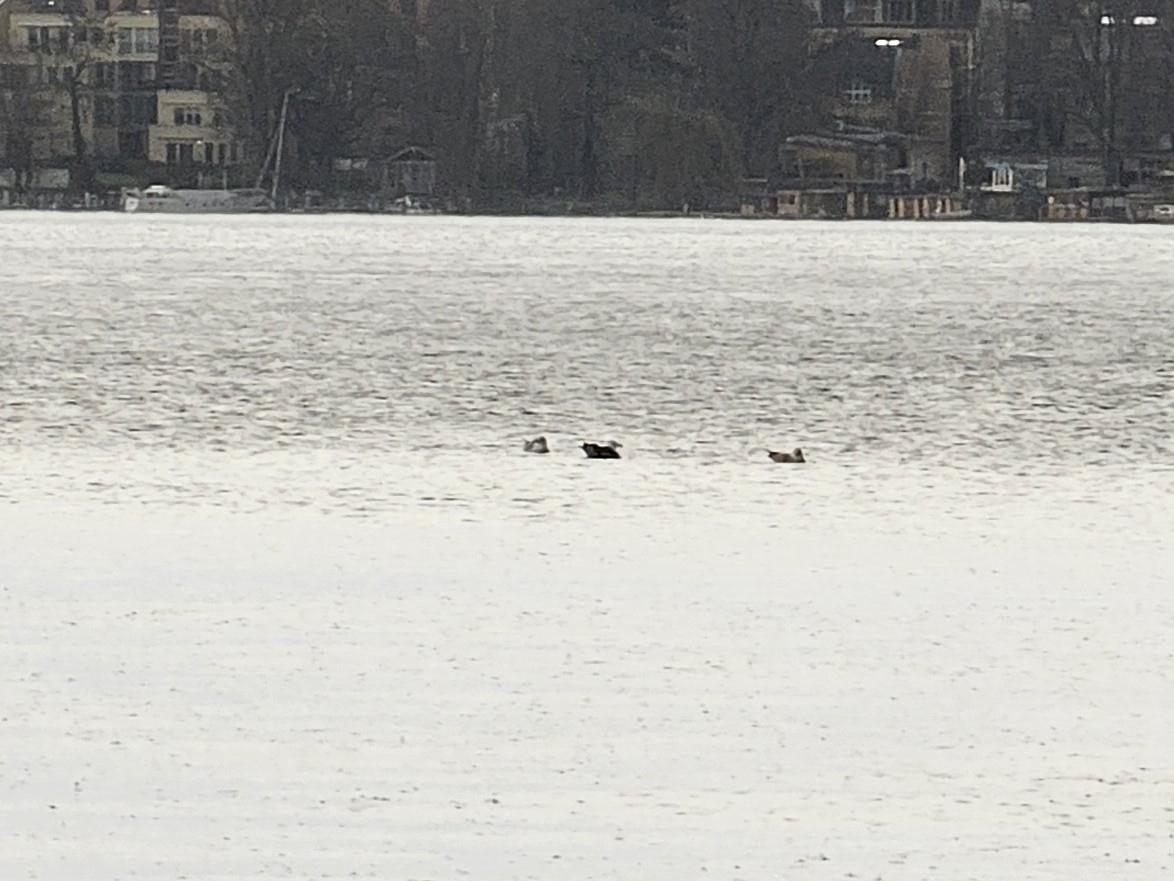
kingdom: Animalia
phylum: Chordata
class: Aves
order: Charadriiformes
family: Laridae
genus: Larus
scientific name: Larus marinus
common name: Great black-backed gull
